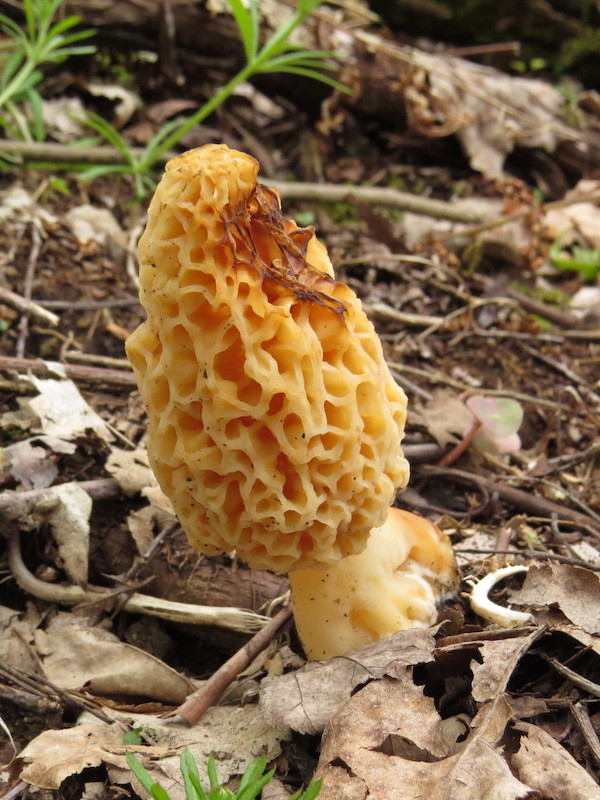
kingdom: Fungi
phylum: Ascomycota
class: Pezizomycetes
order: Pezizales
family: Morchellaceae
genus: Morchella
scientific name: Morchella americana
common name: White morel
